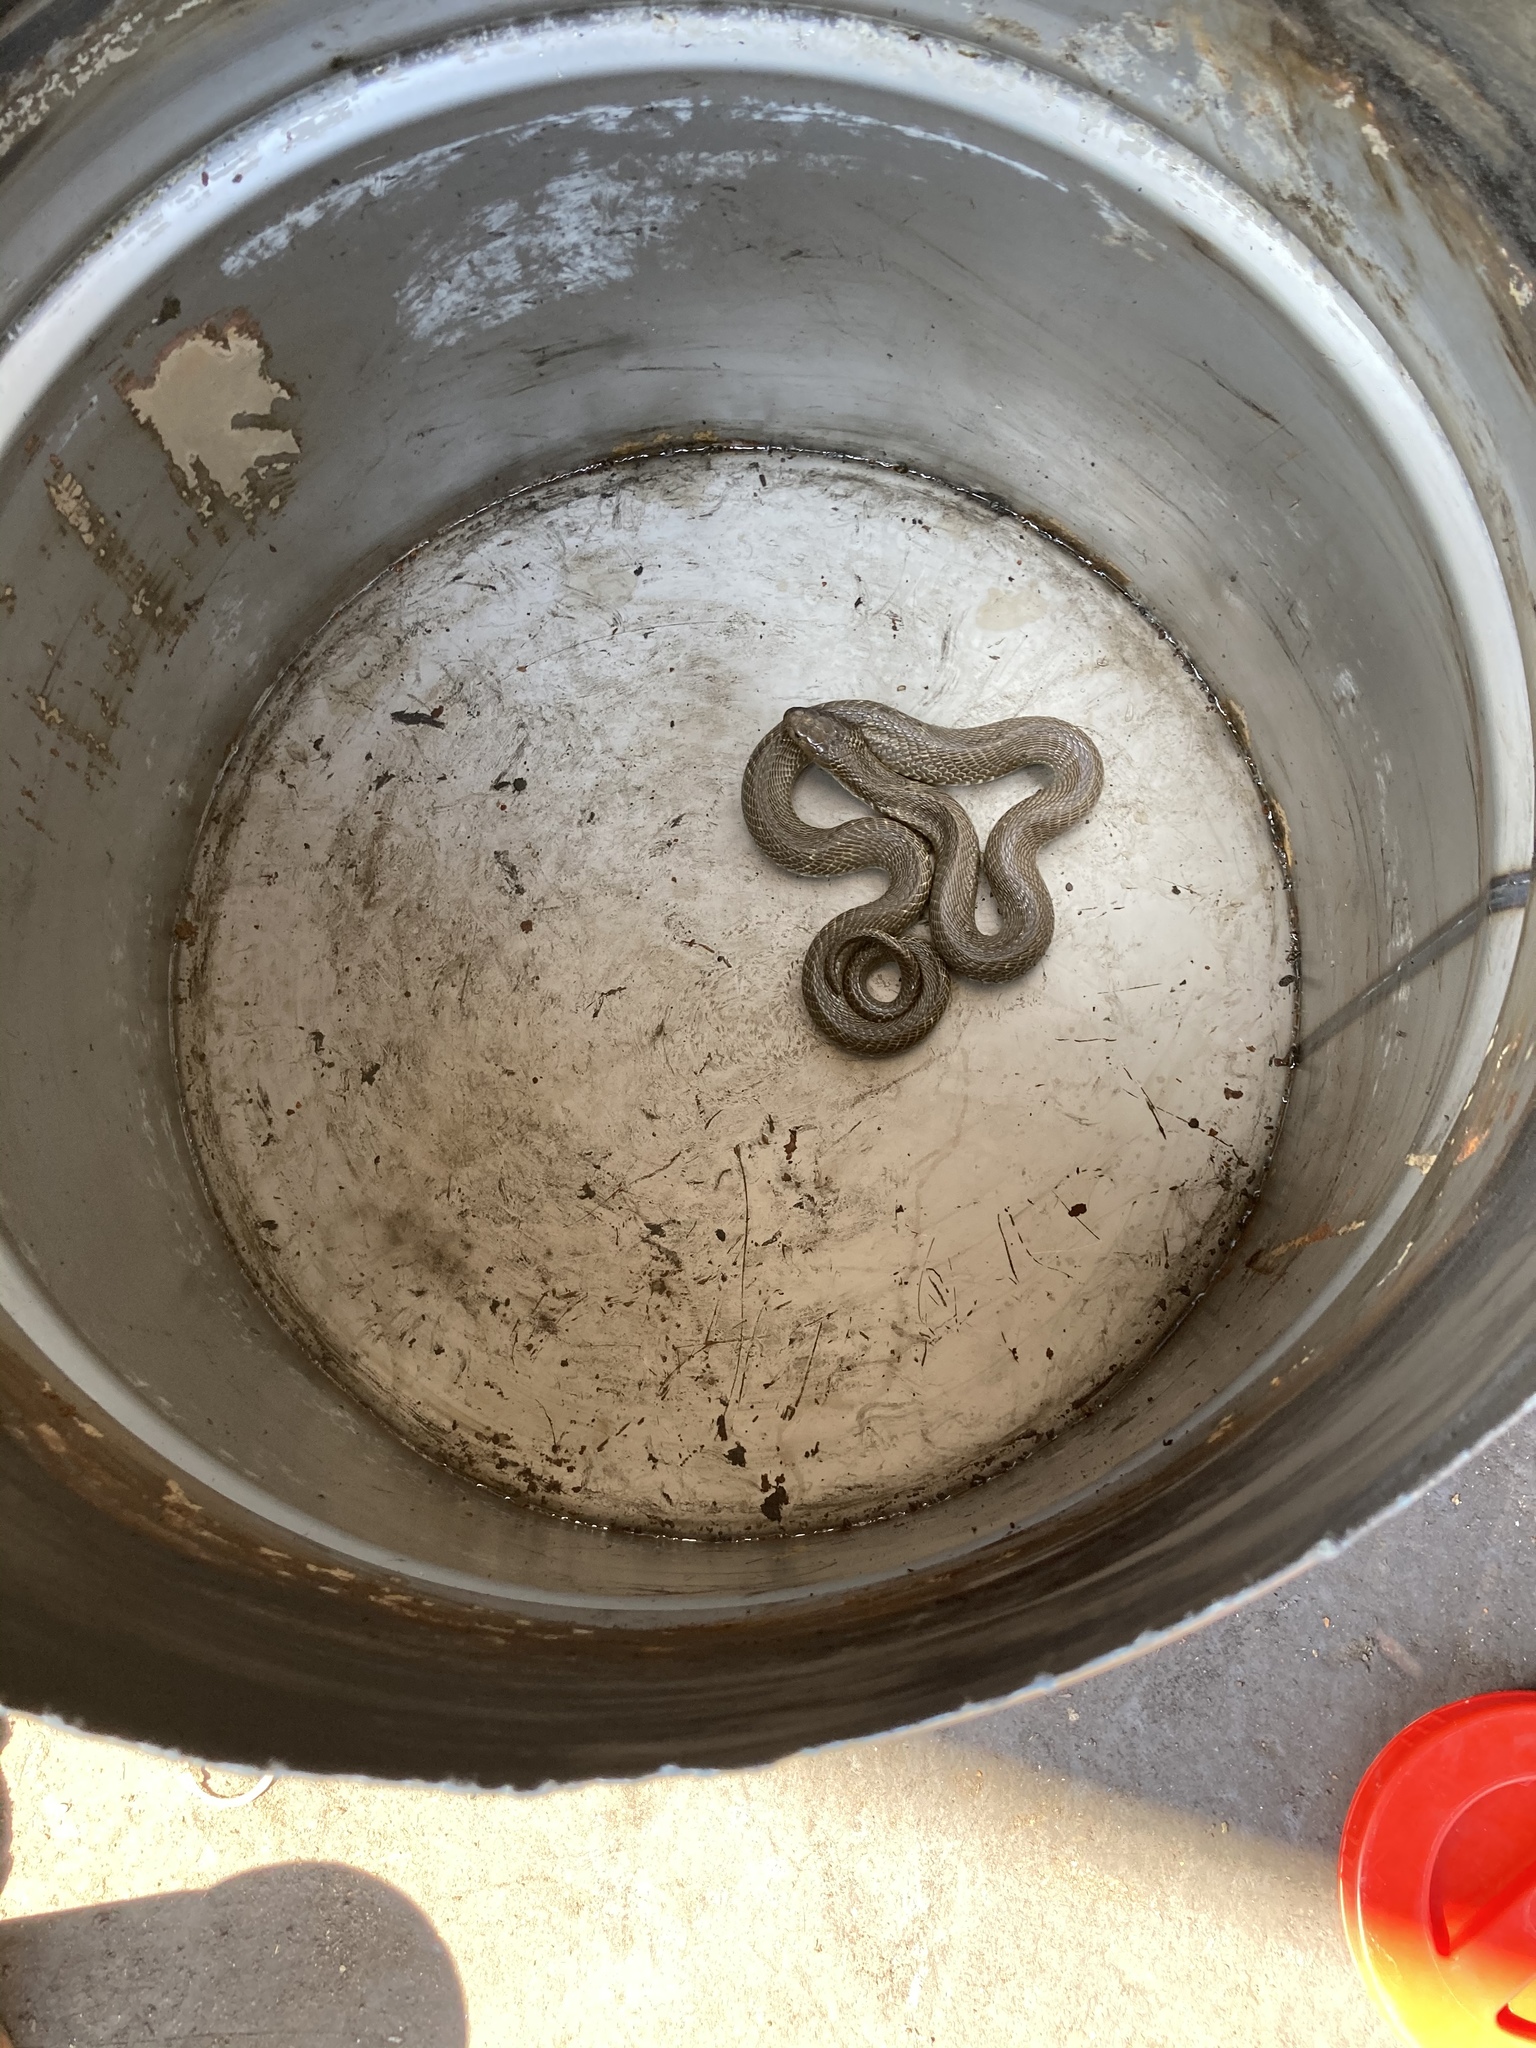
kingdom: Animalia
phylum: Chordata
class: Squamata
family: Elapidae
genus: Naja
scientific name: Naja atra
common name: Chinese cobra
